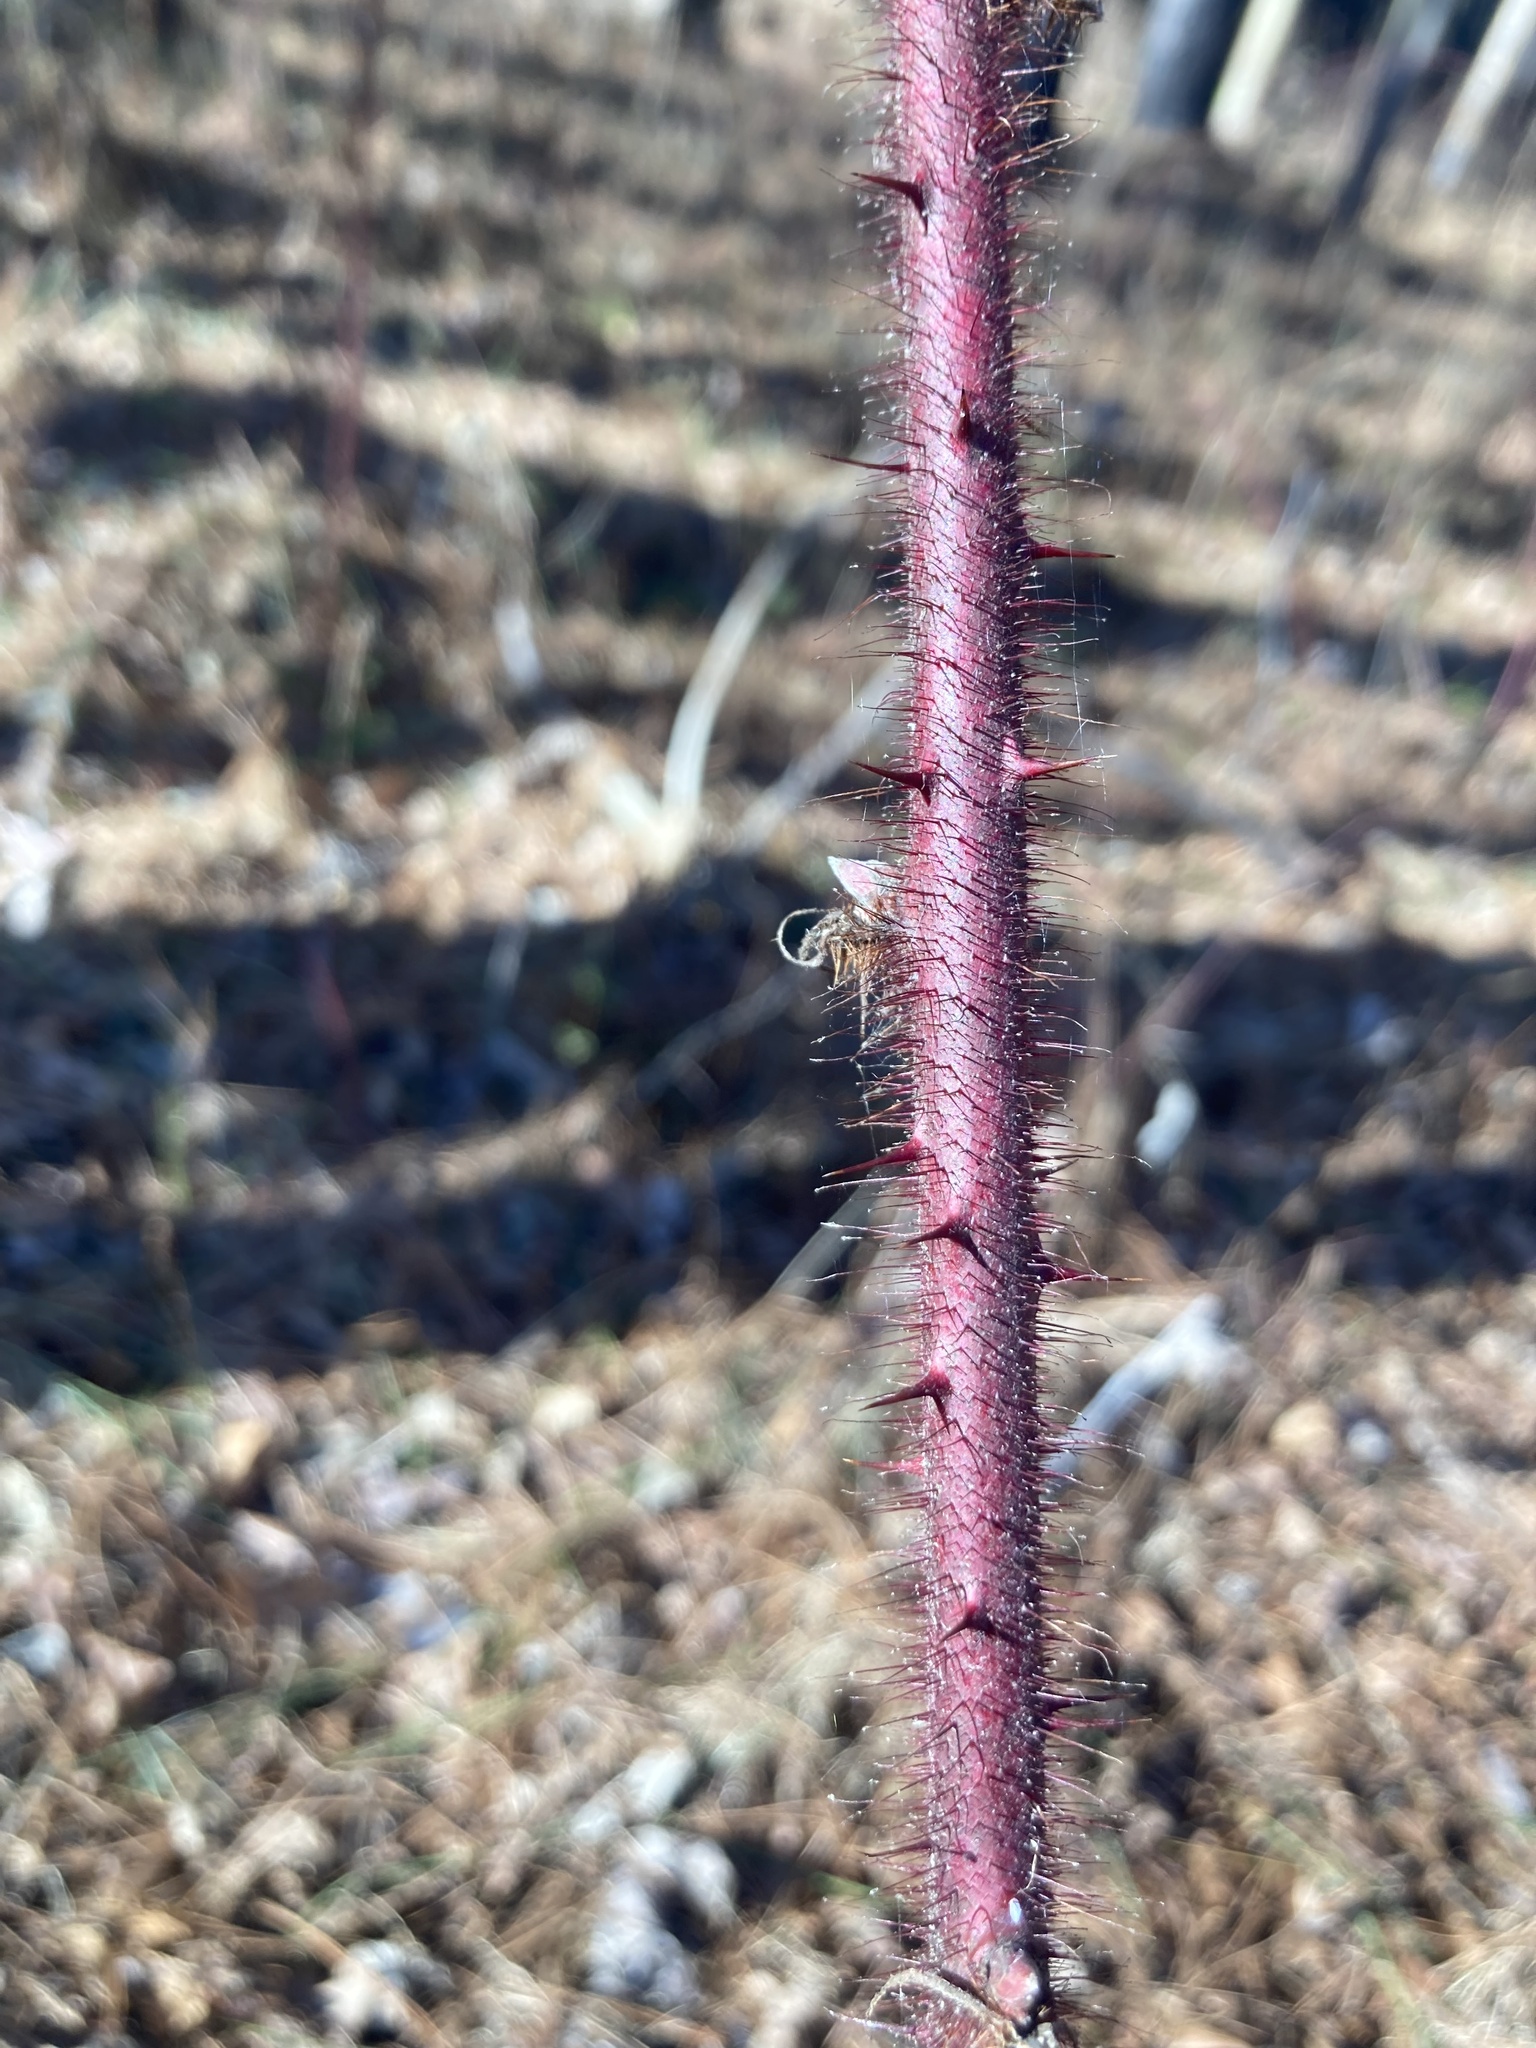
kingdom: Plantae
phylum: Tracheophyta
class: Magnoliopsida
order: Rosales
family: Rosaceae
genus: Rubus
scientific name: Rubus phoenicolasius
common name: Japanese wineberry
